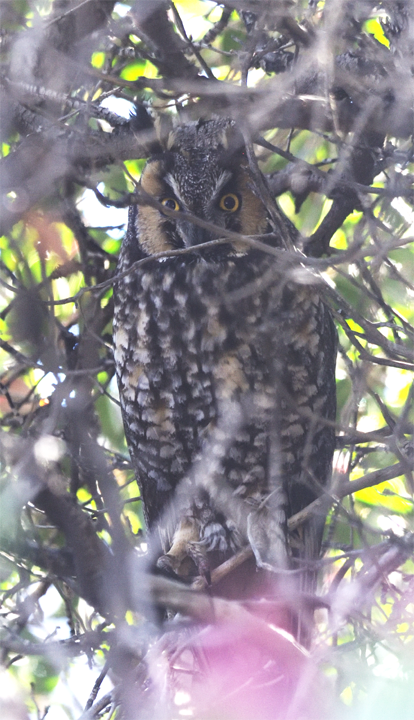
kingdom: Animalia
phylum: Chordata
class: Aves
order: Strigiformes
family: Strigidae
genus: Asio
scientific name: Asio otus
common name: Long-eared owl
